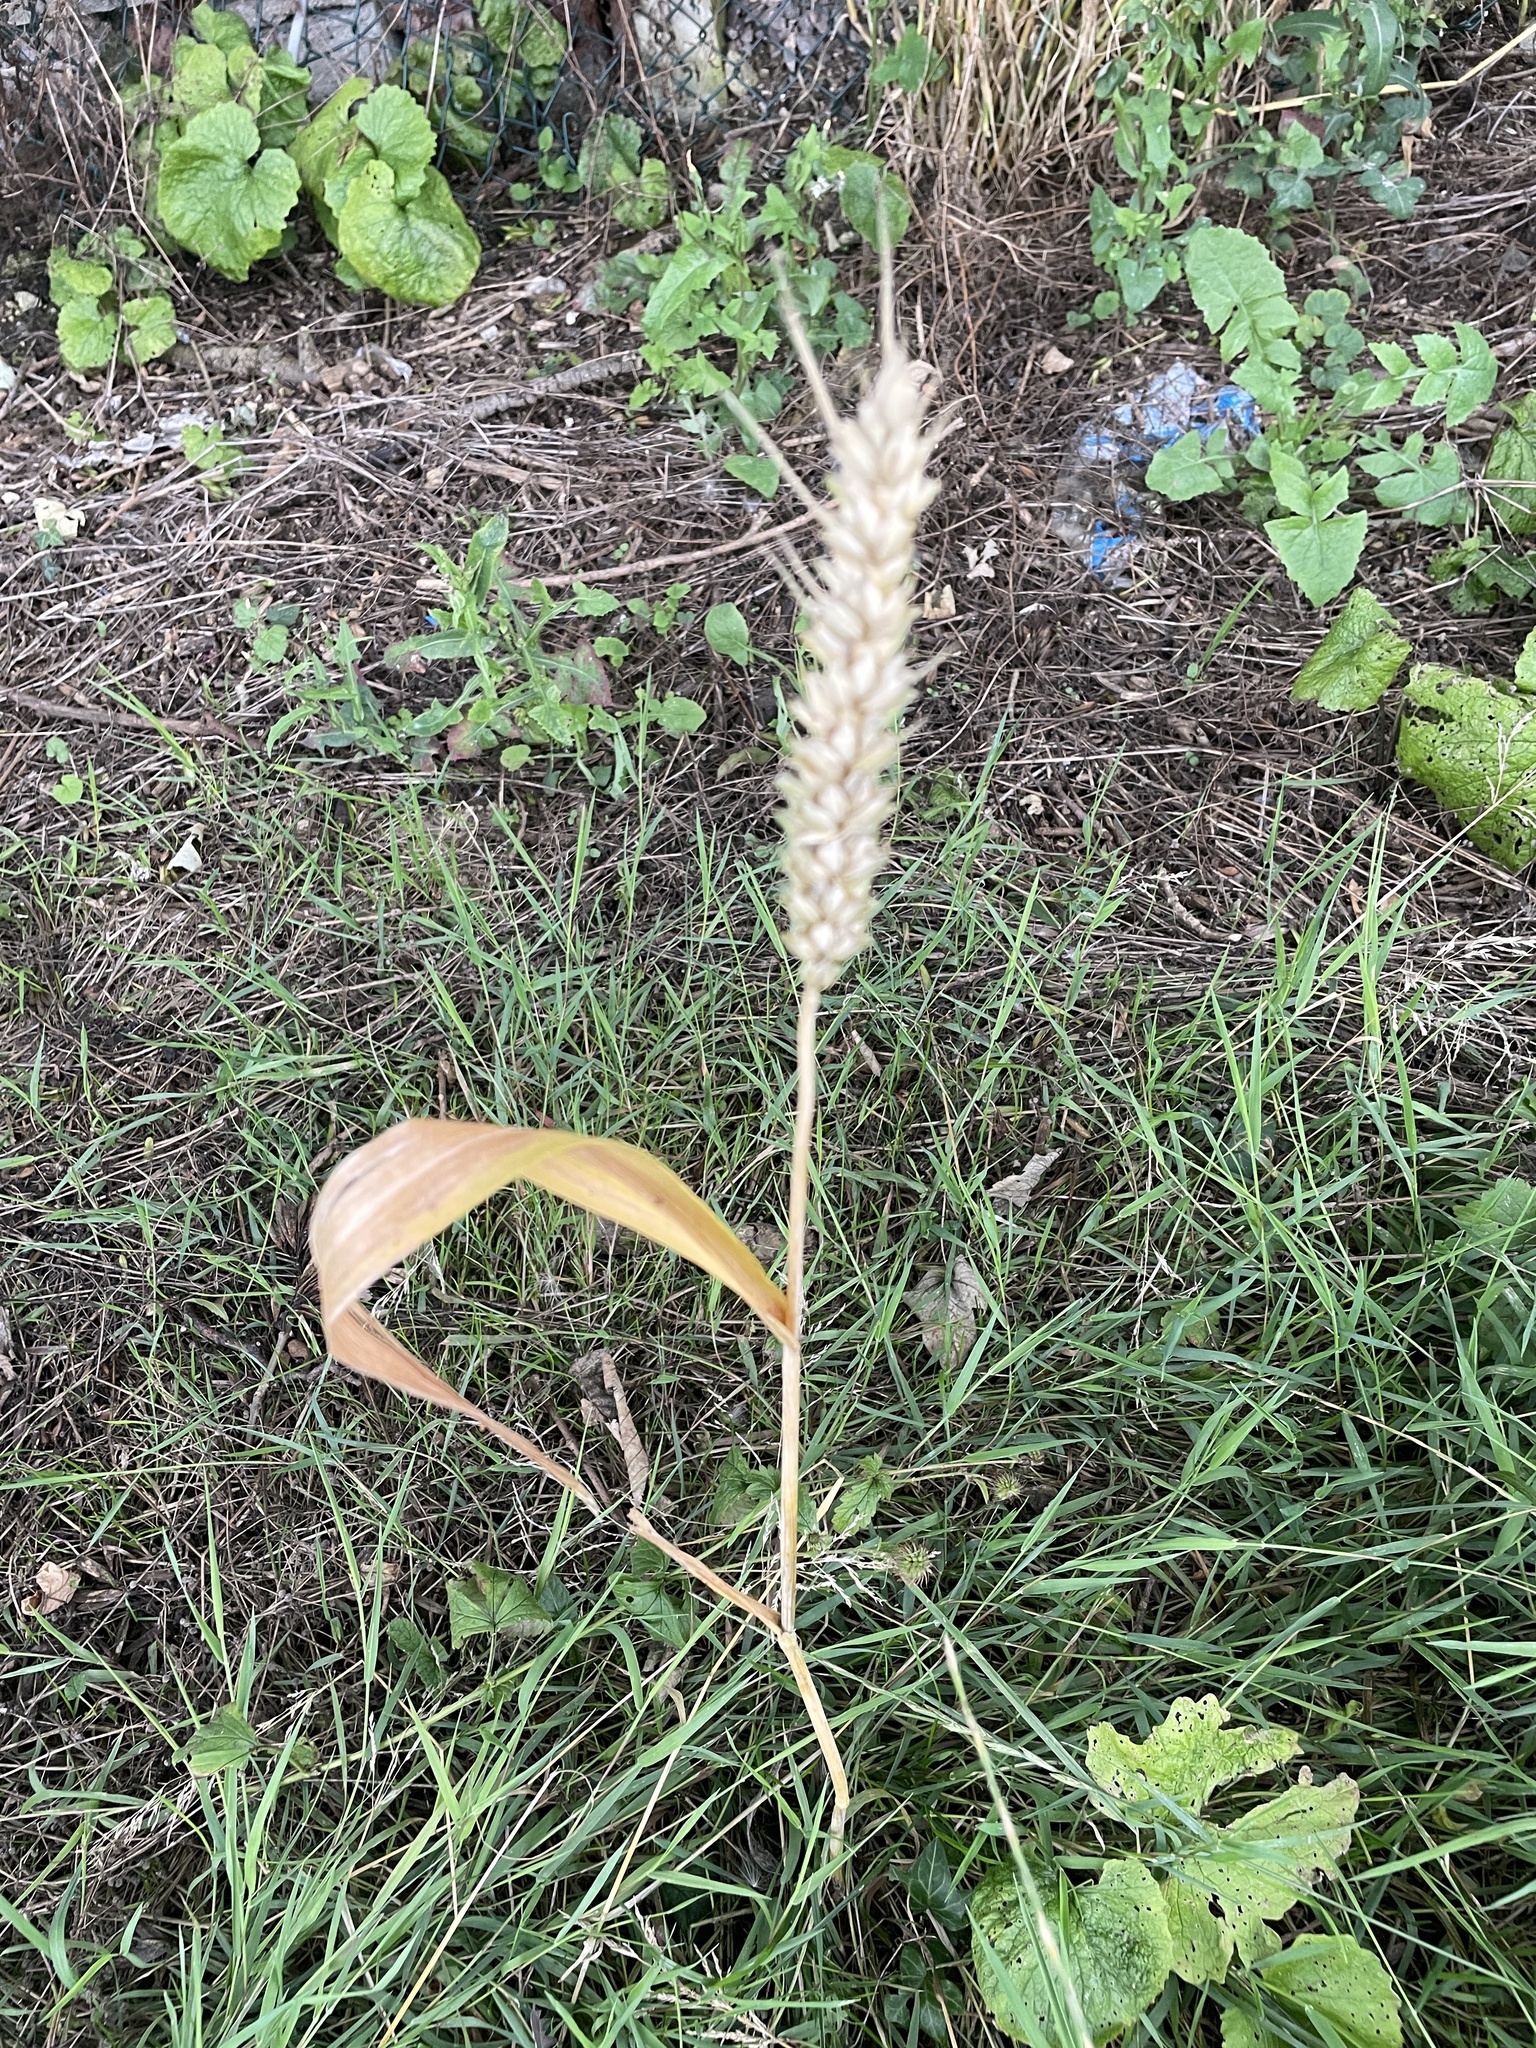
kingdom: Plantae
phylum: Tracheophyta
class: Liliopsida
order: Poales
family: Poaceae
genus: Triticum
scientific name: Triticum aestivum
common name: Common wheat
